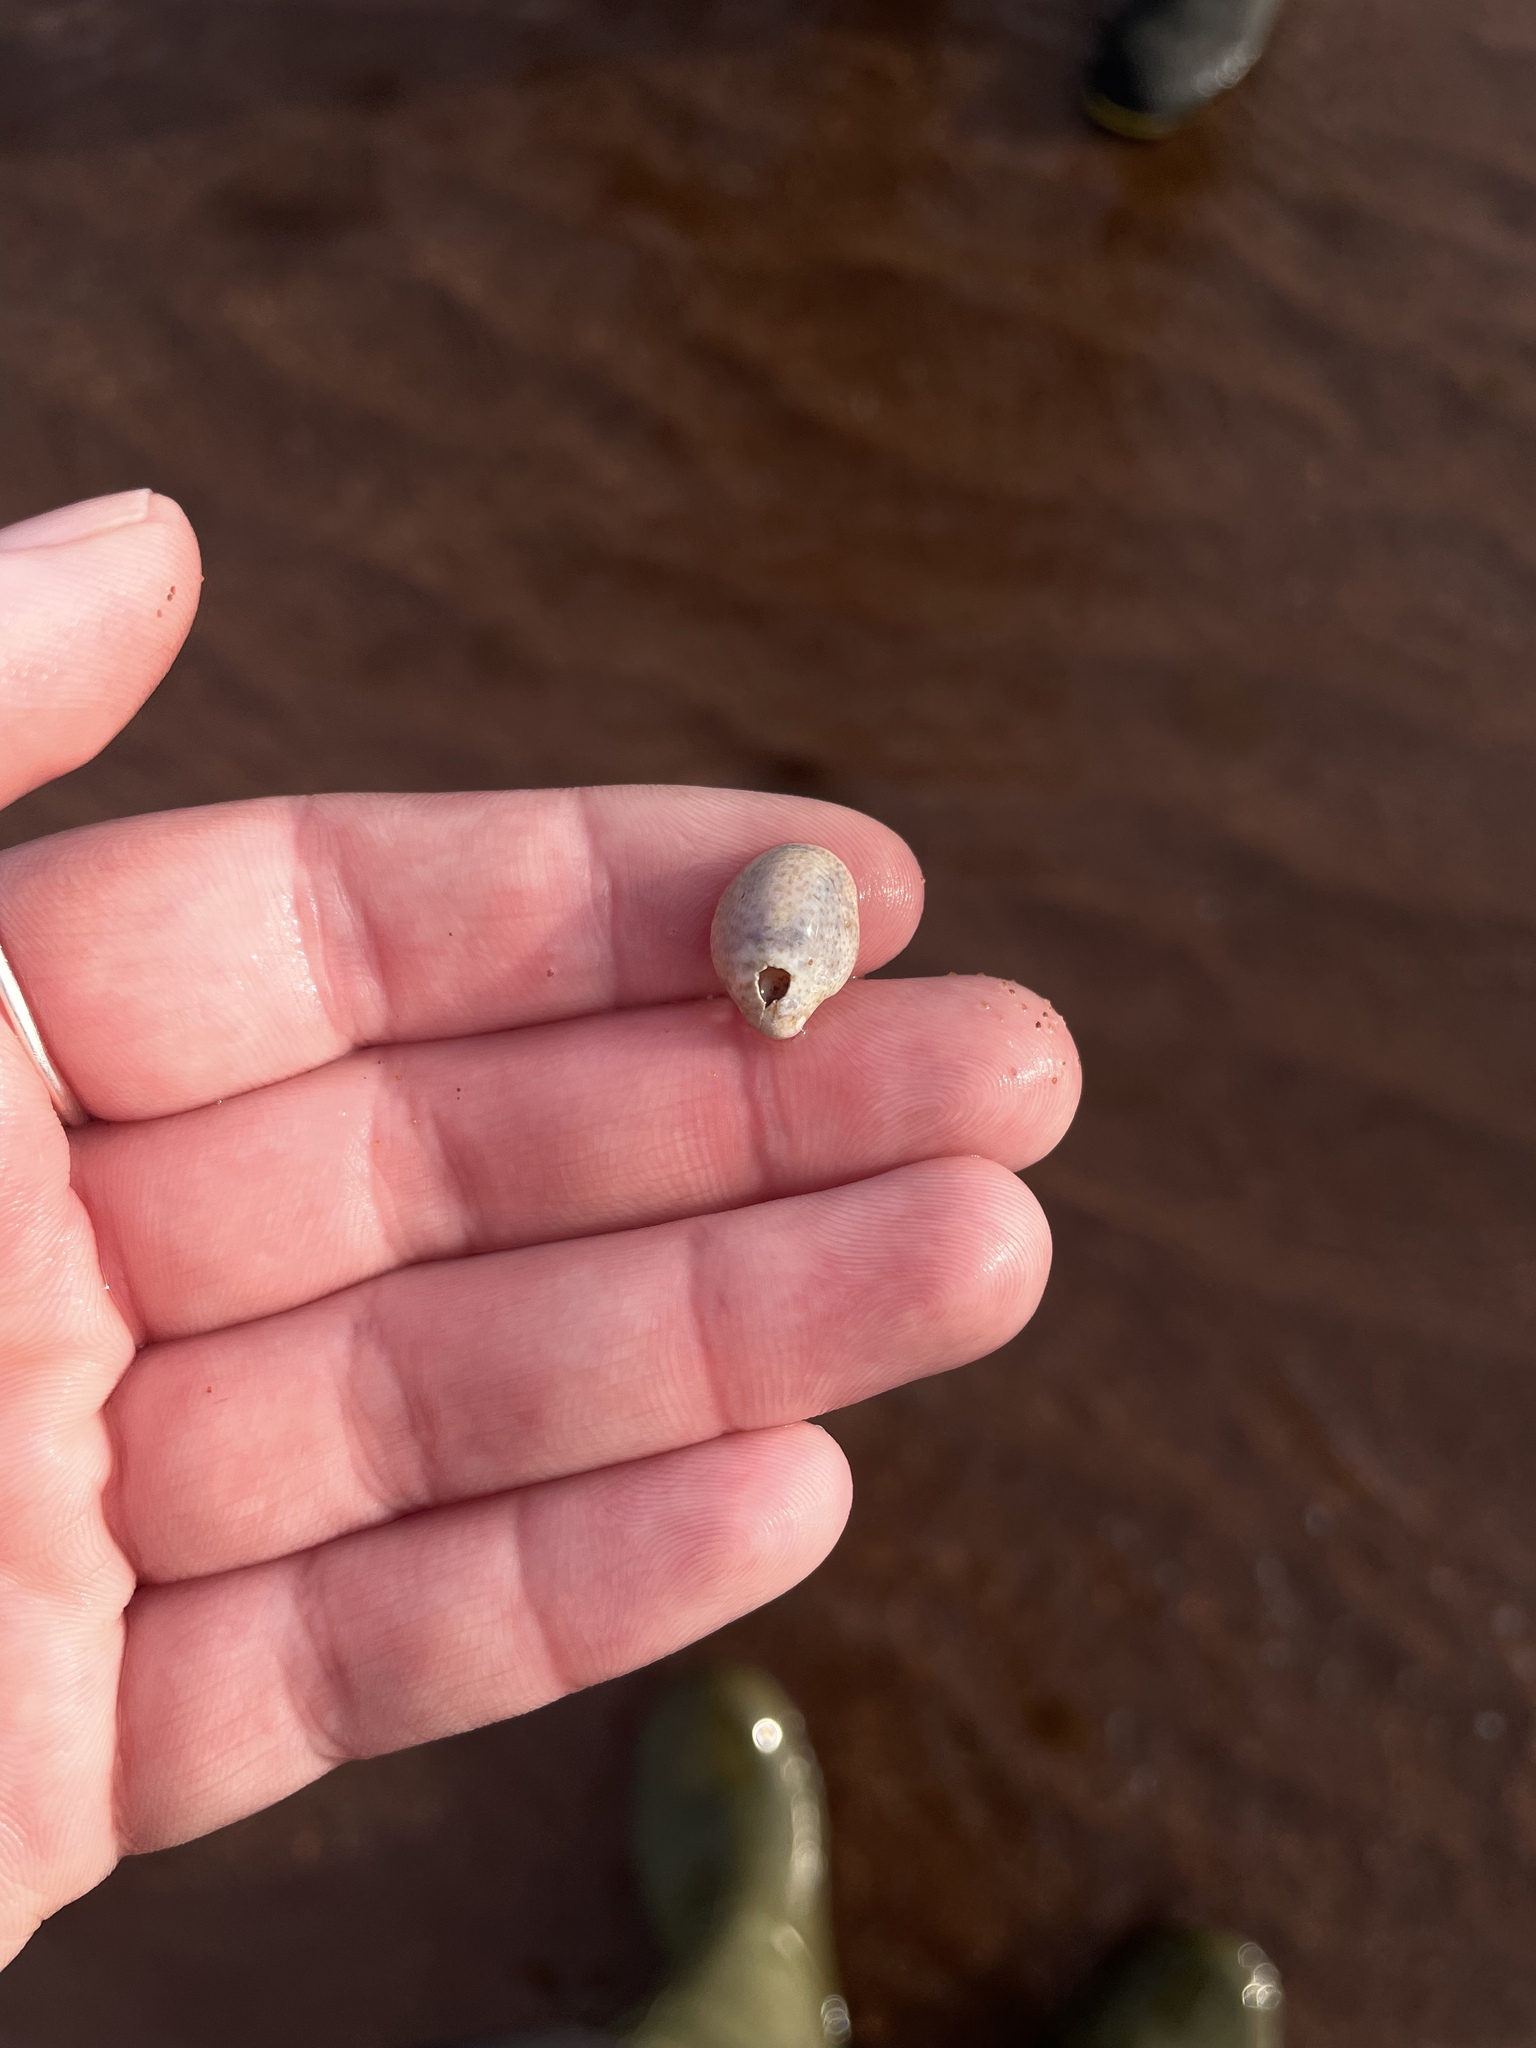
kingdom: Animalia
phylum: Mollusca
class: Gastropoda
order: Littorinimorpha
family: Calyptraeidae
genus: Crepidula
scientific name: Crepidula fornicata
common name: Slipper limpet
